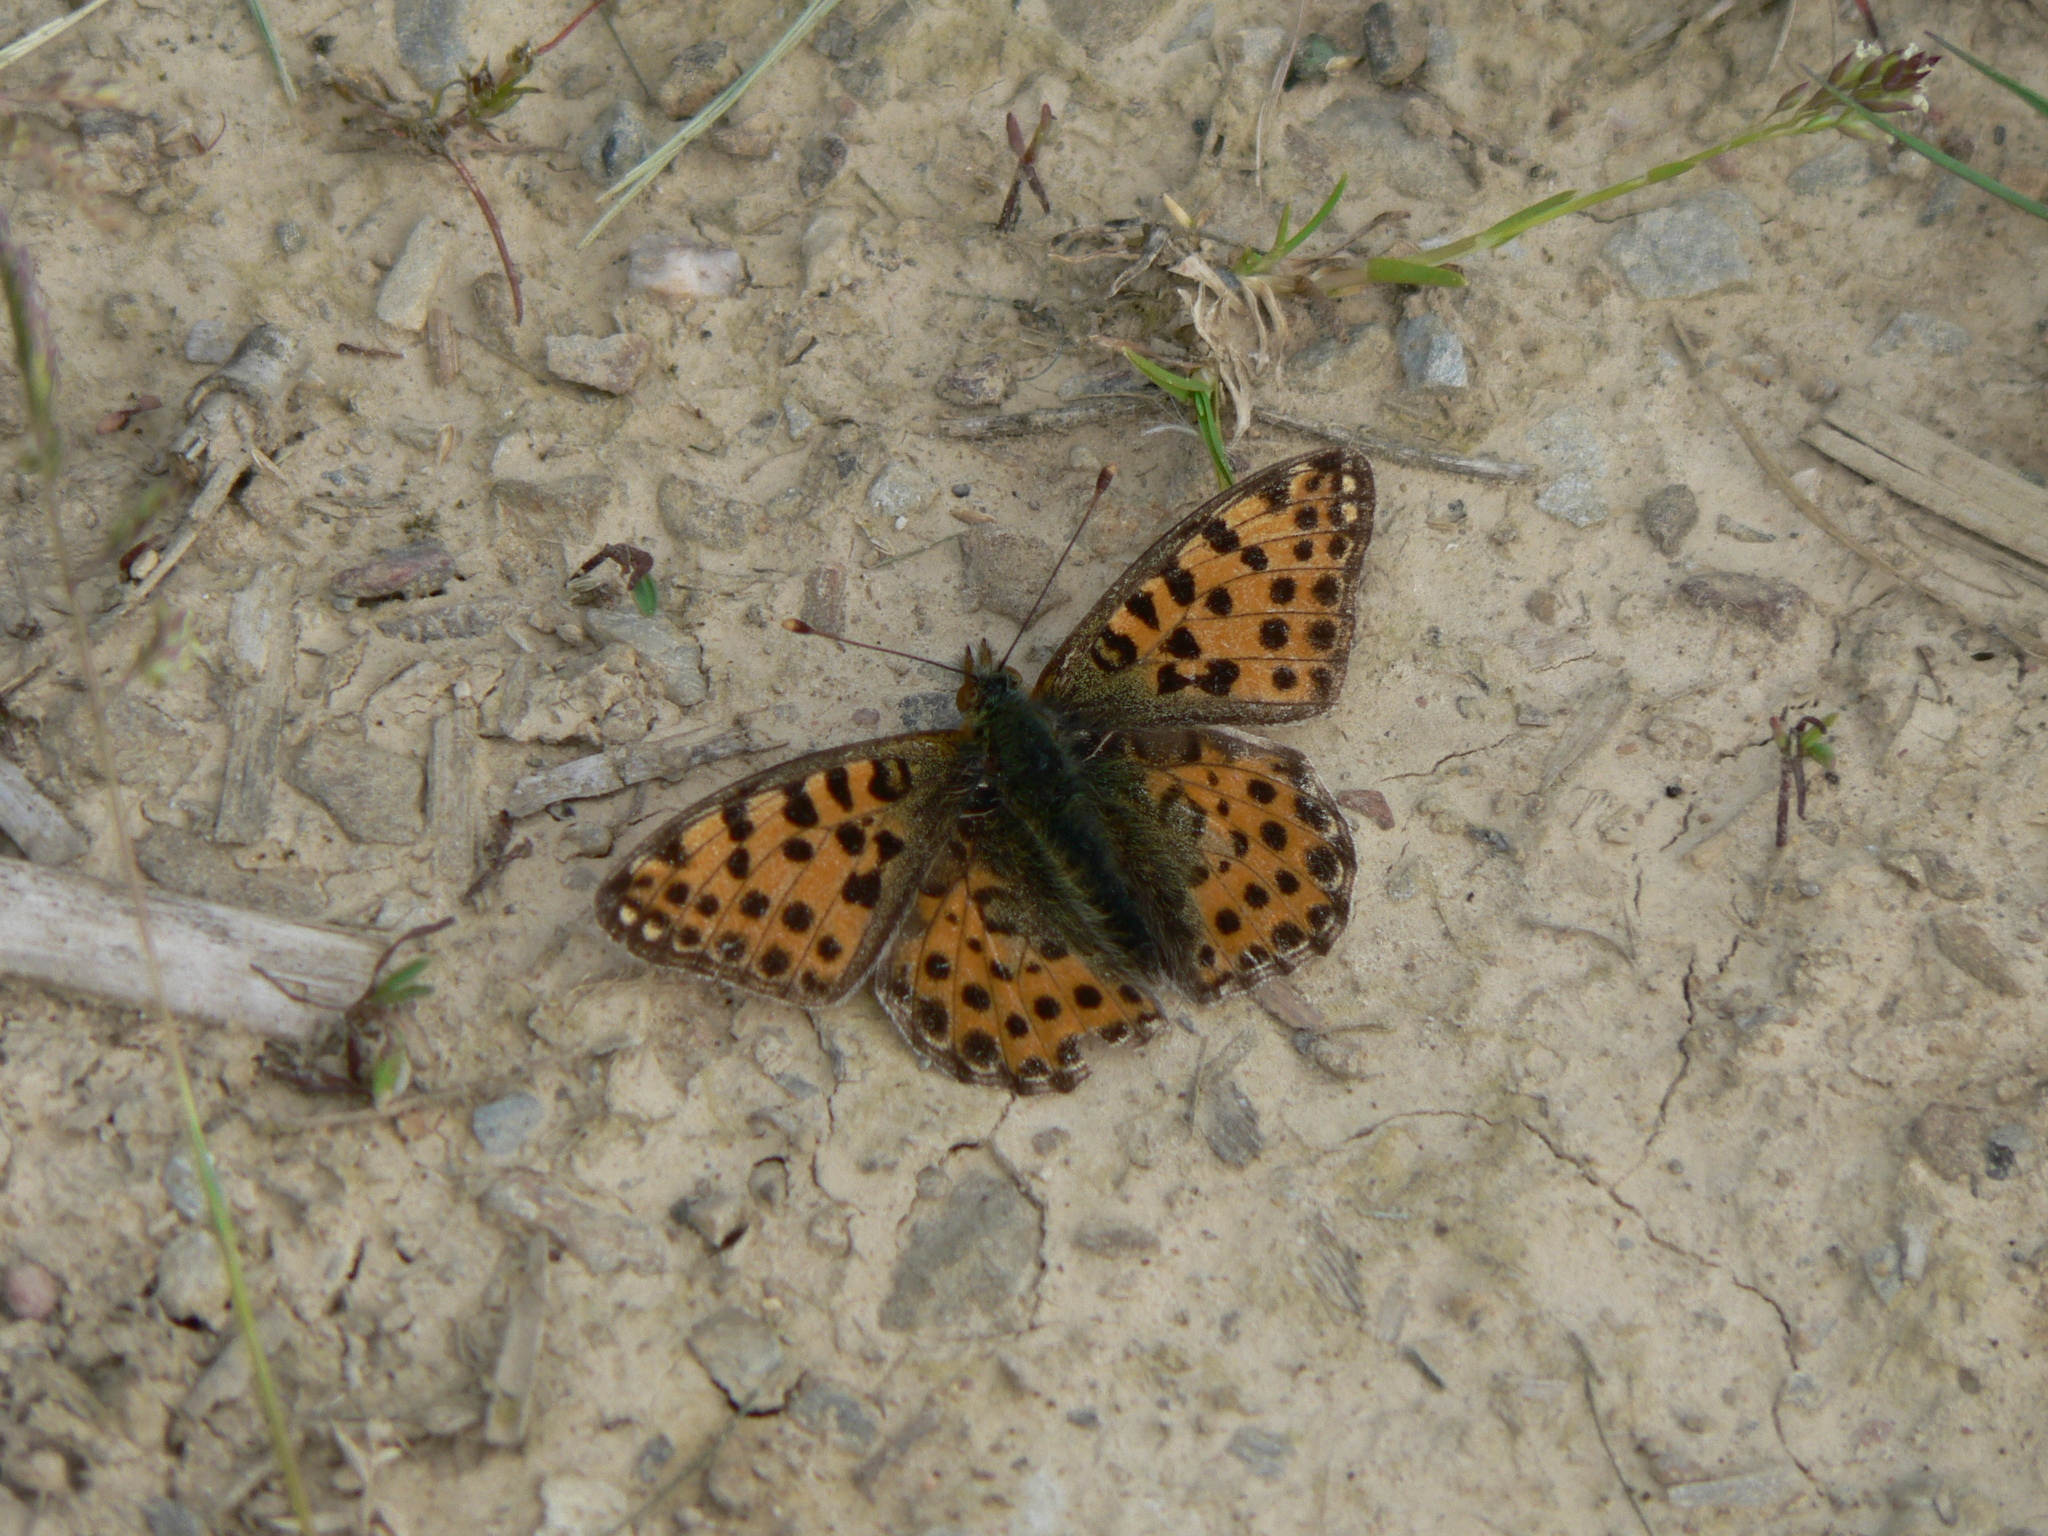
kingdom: Animalia
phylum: Arthropoda
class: Insecta
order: Lepidoptera
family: Nymphalidae
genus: Issoria
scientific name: Issoria lathonia
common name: Queen of spain fritillary
